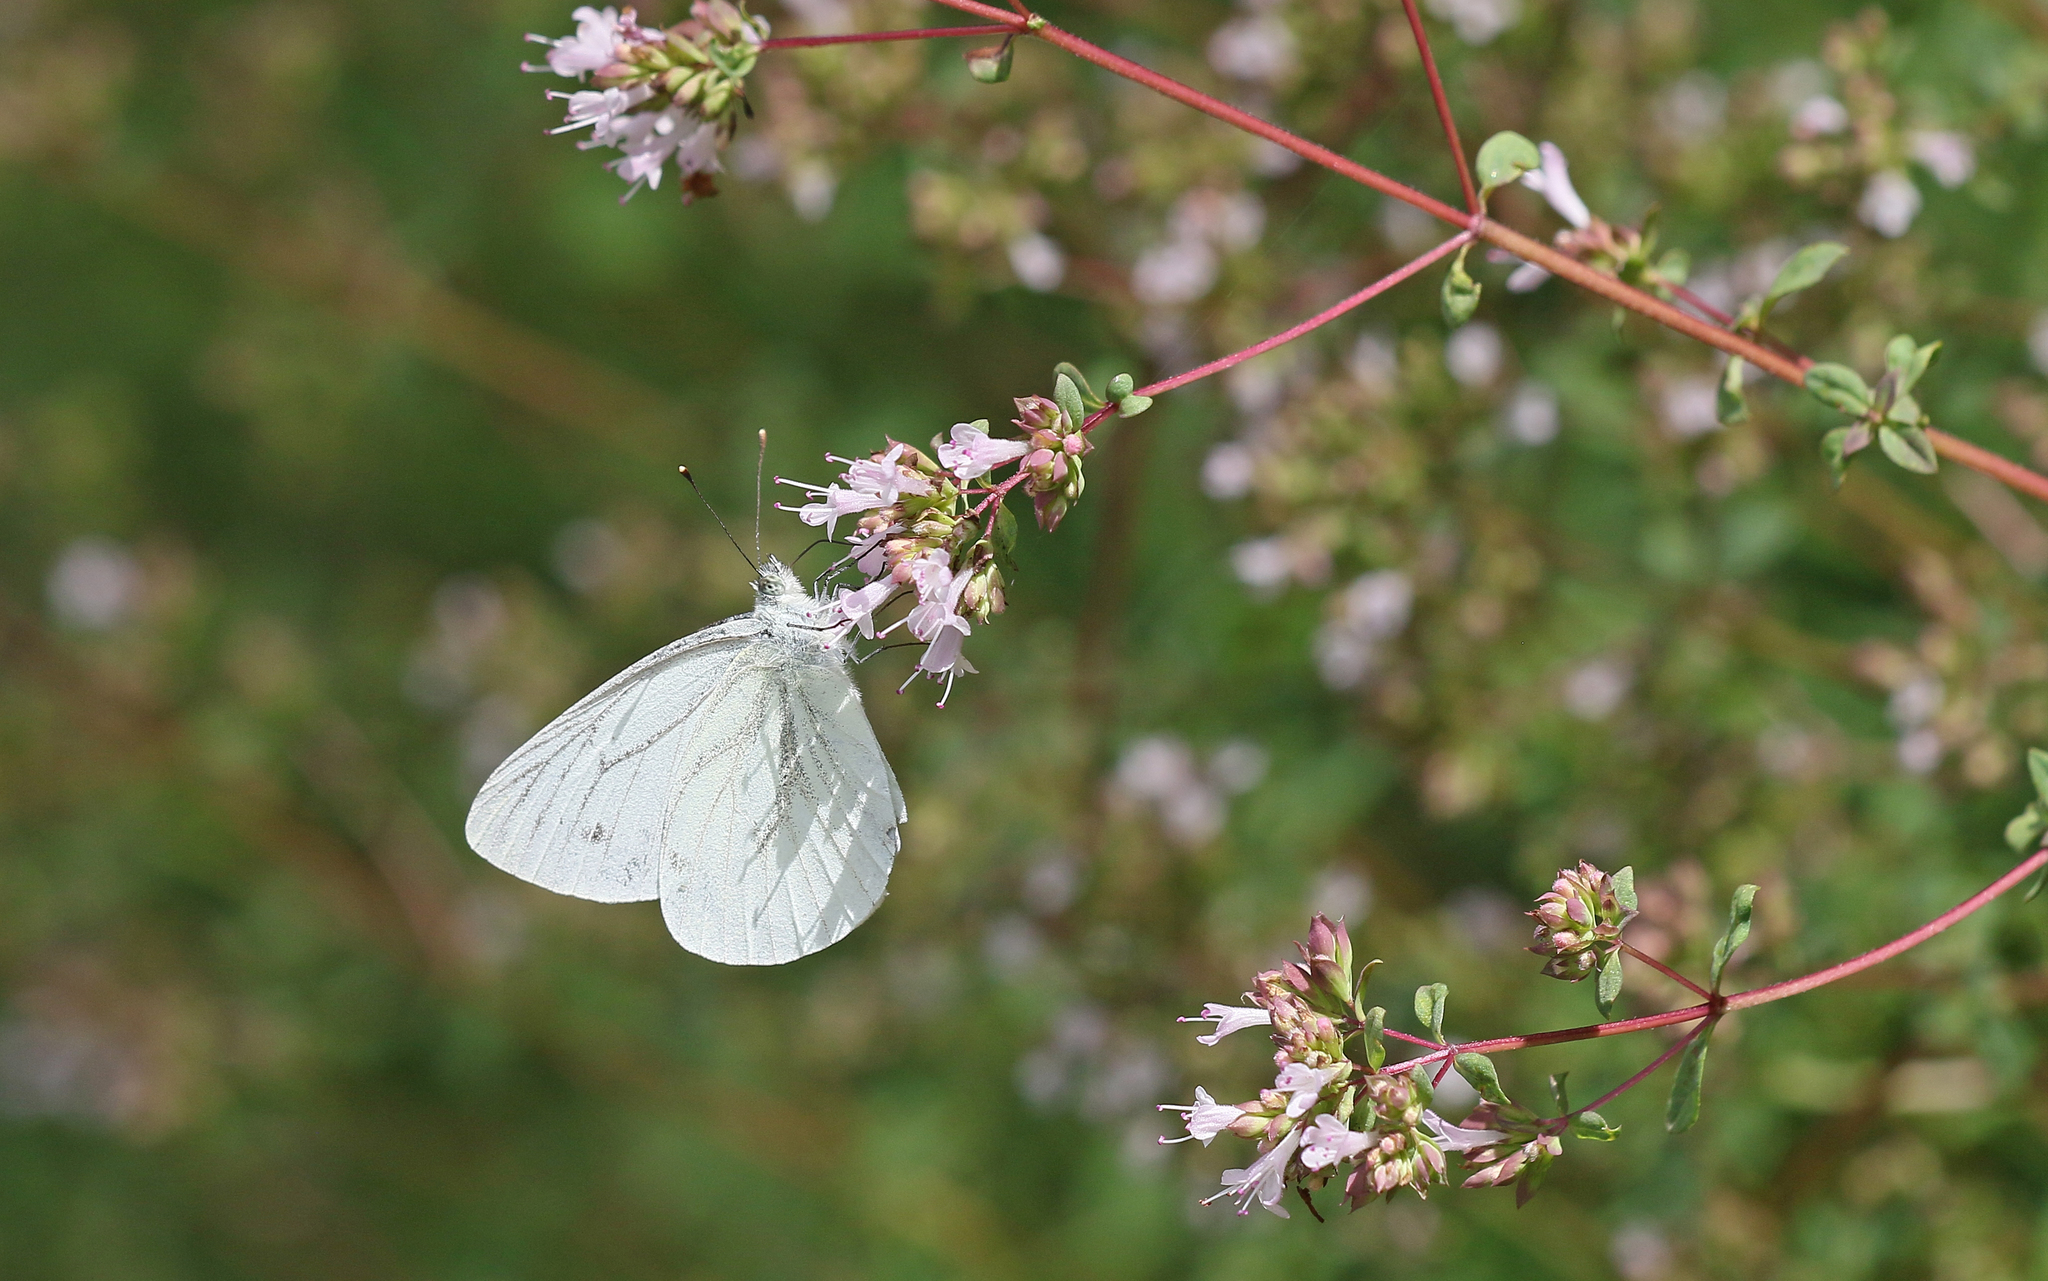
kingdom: Animalia
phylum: Arthropoda
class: Insecta
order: Lepidoptera
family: Pieridae
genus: Pieris
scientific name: Pieris napi
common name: Green-veined white
